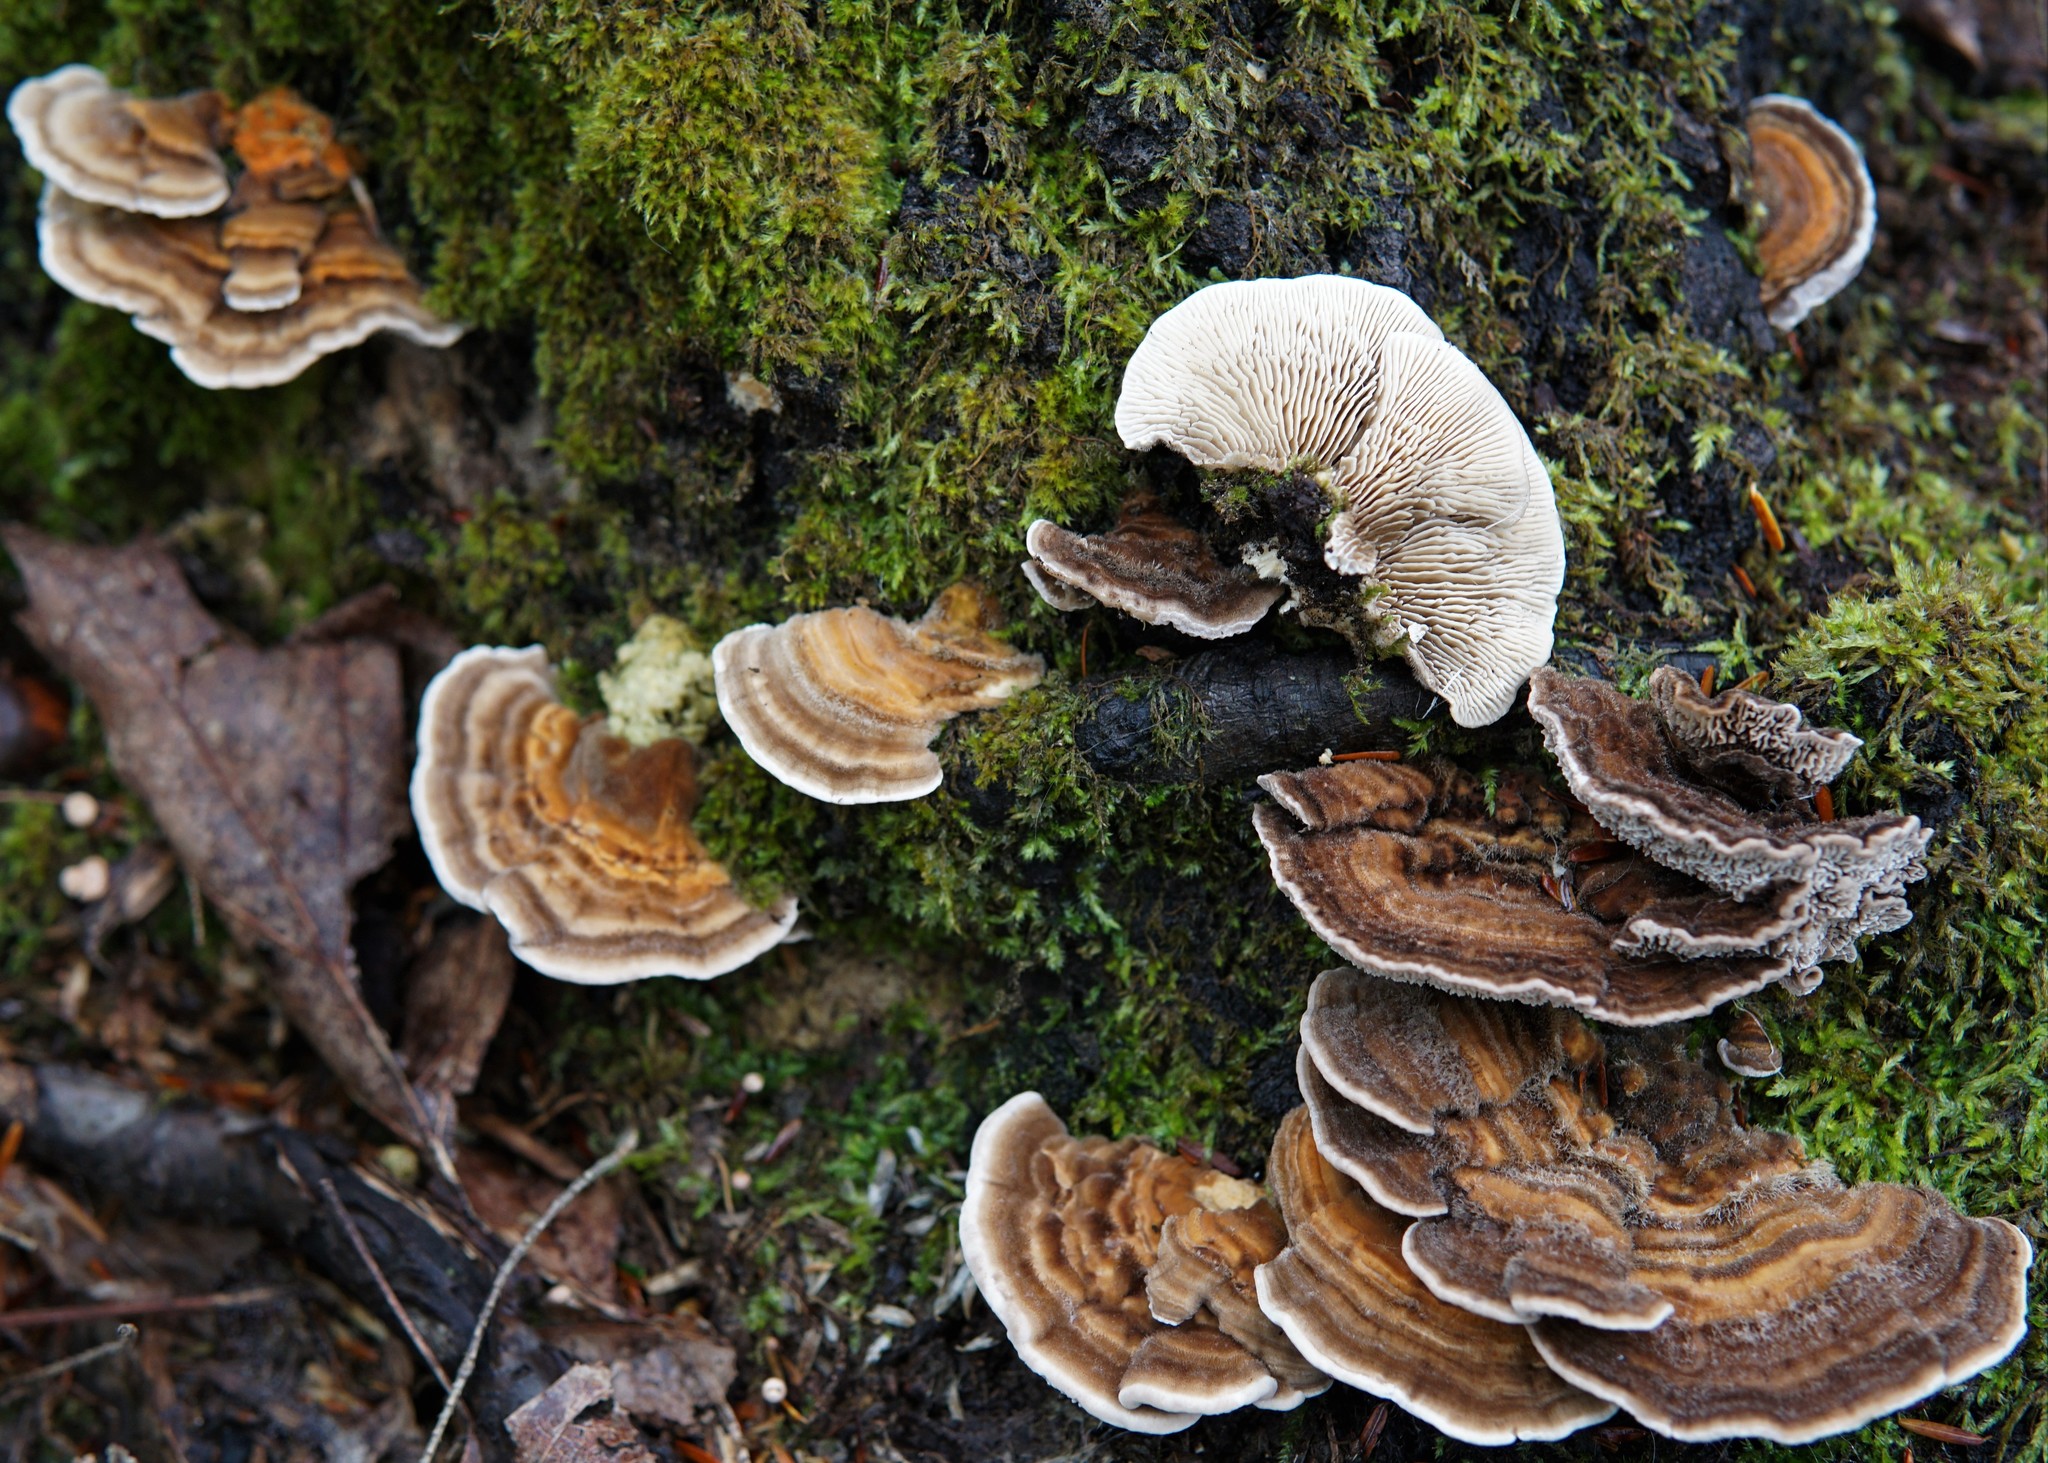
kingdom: Fungi
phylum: Basidiomycota
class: Agaricomycetes
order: Polyporales
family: Polyporaceae
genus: Lenzites
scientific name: Lenzites betulinus
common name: Birch mazegill
